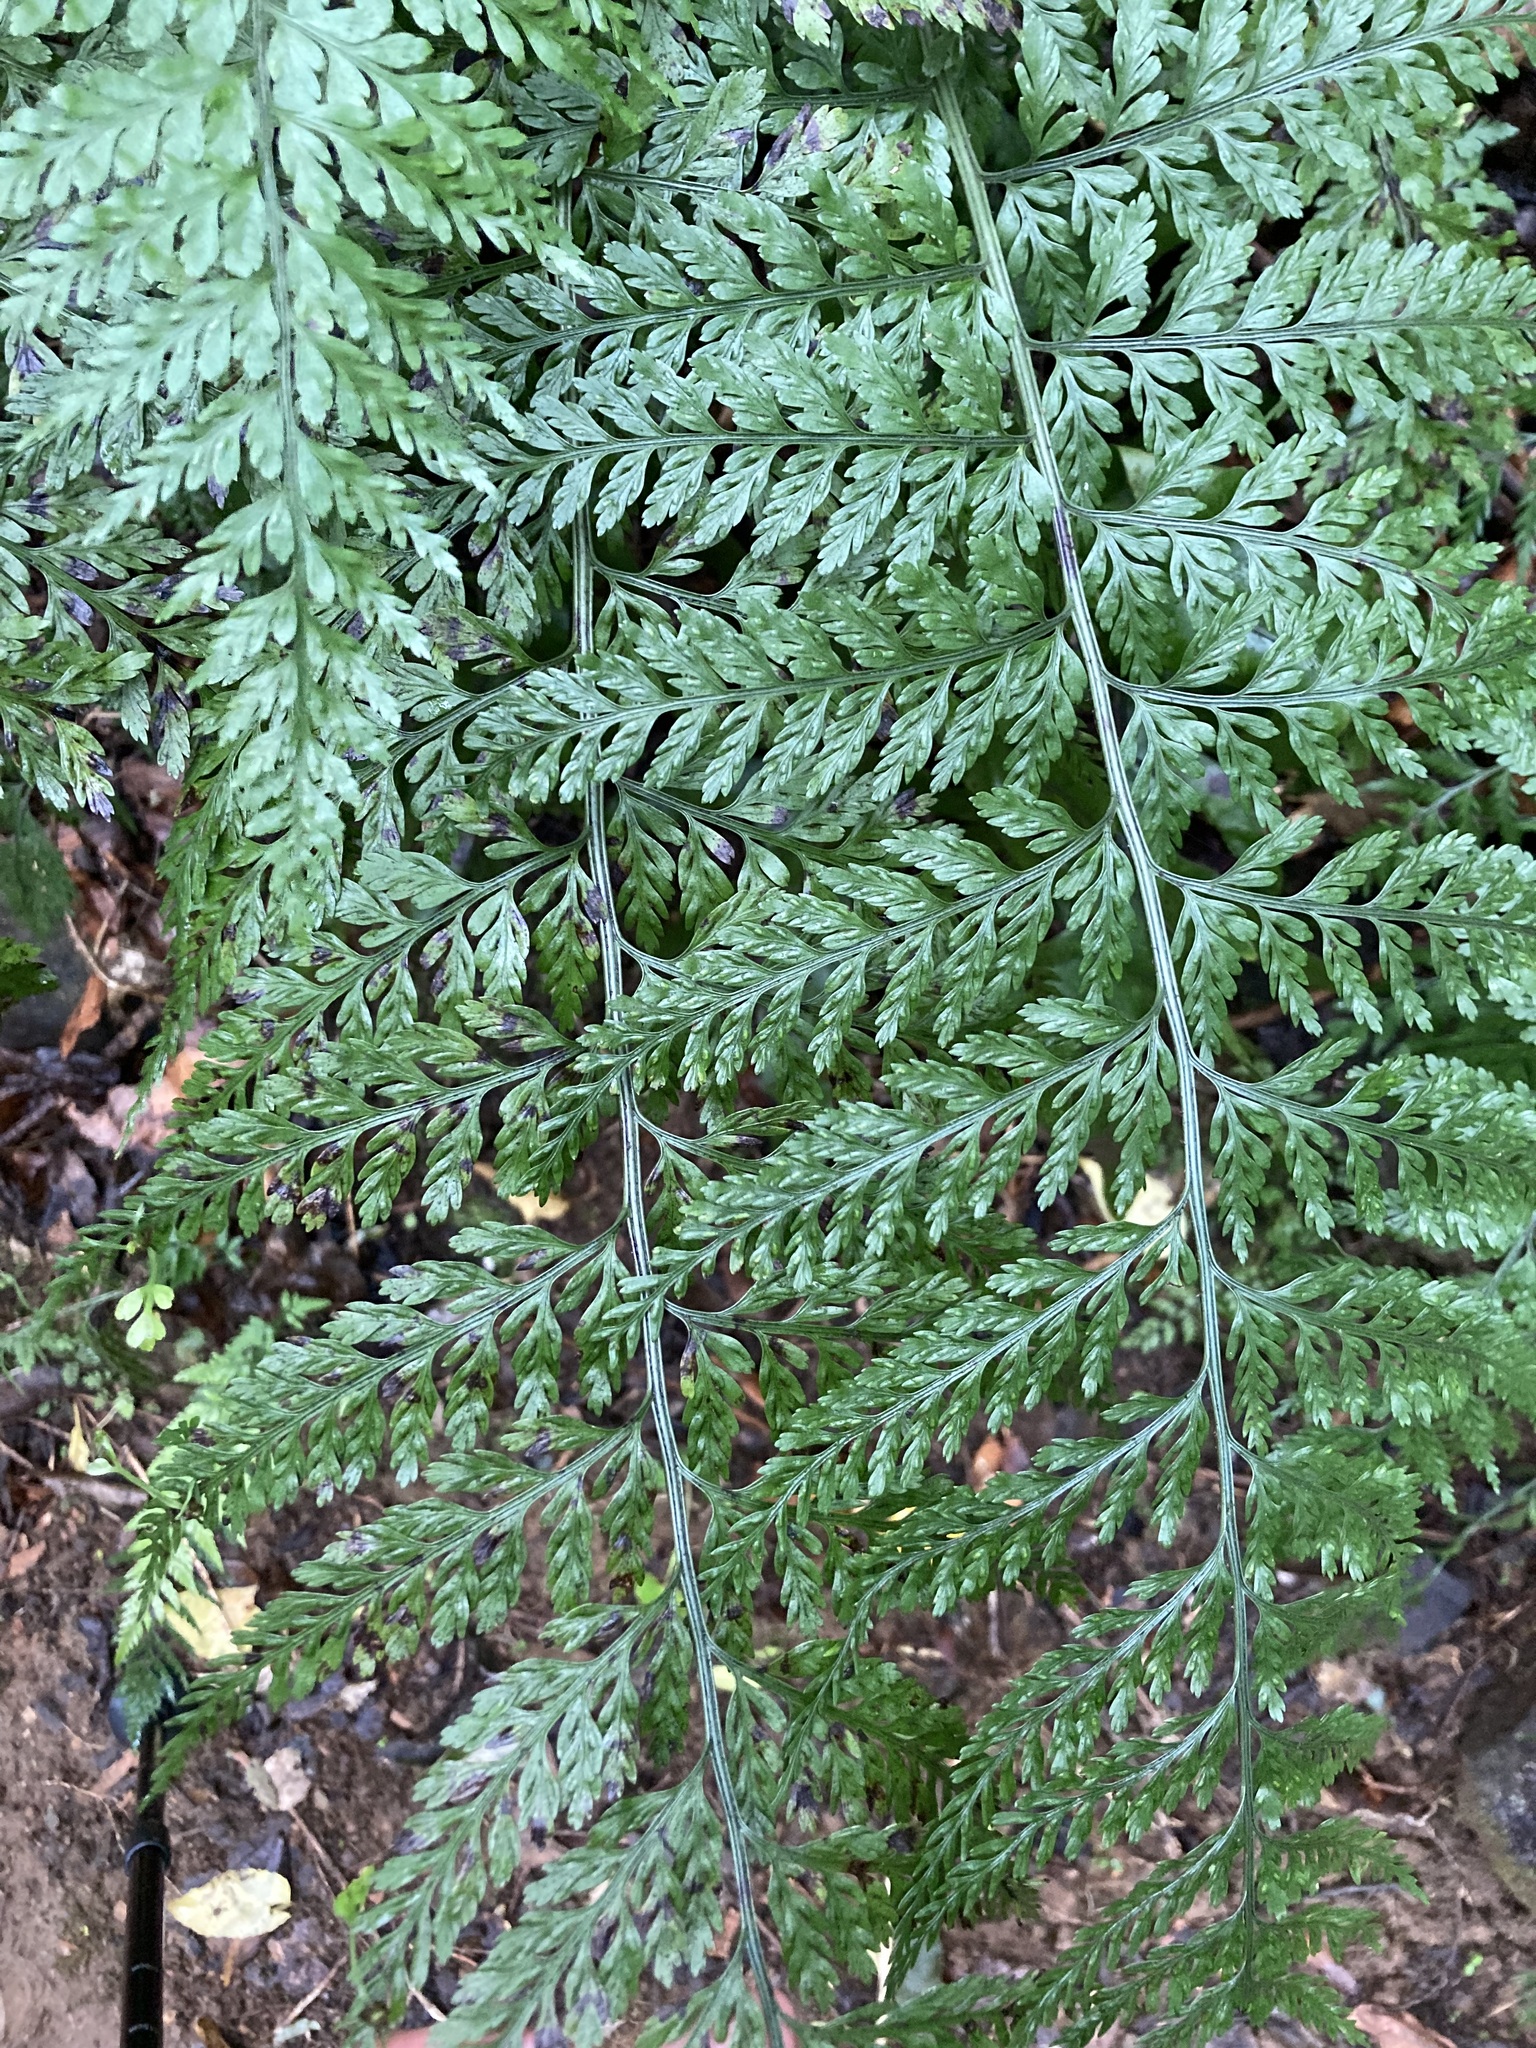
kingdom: Plantae
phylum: Tracheophyta
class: Polypodiopsida
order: Polypodiales
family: Aspleniaceae
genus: Asplenium
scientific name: Asplenium
